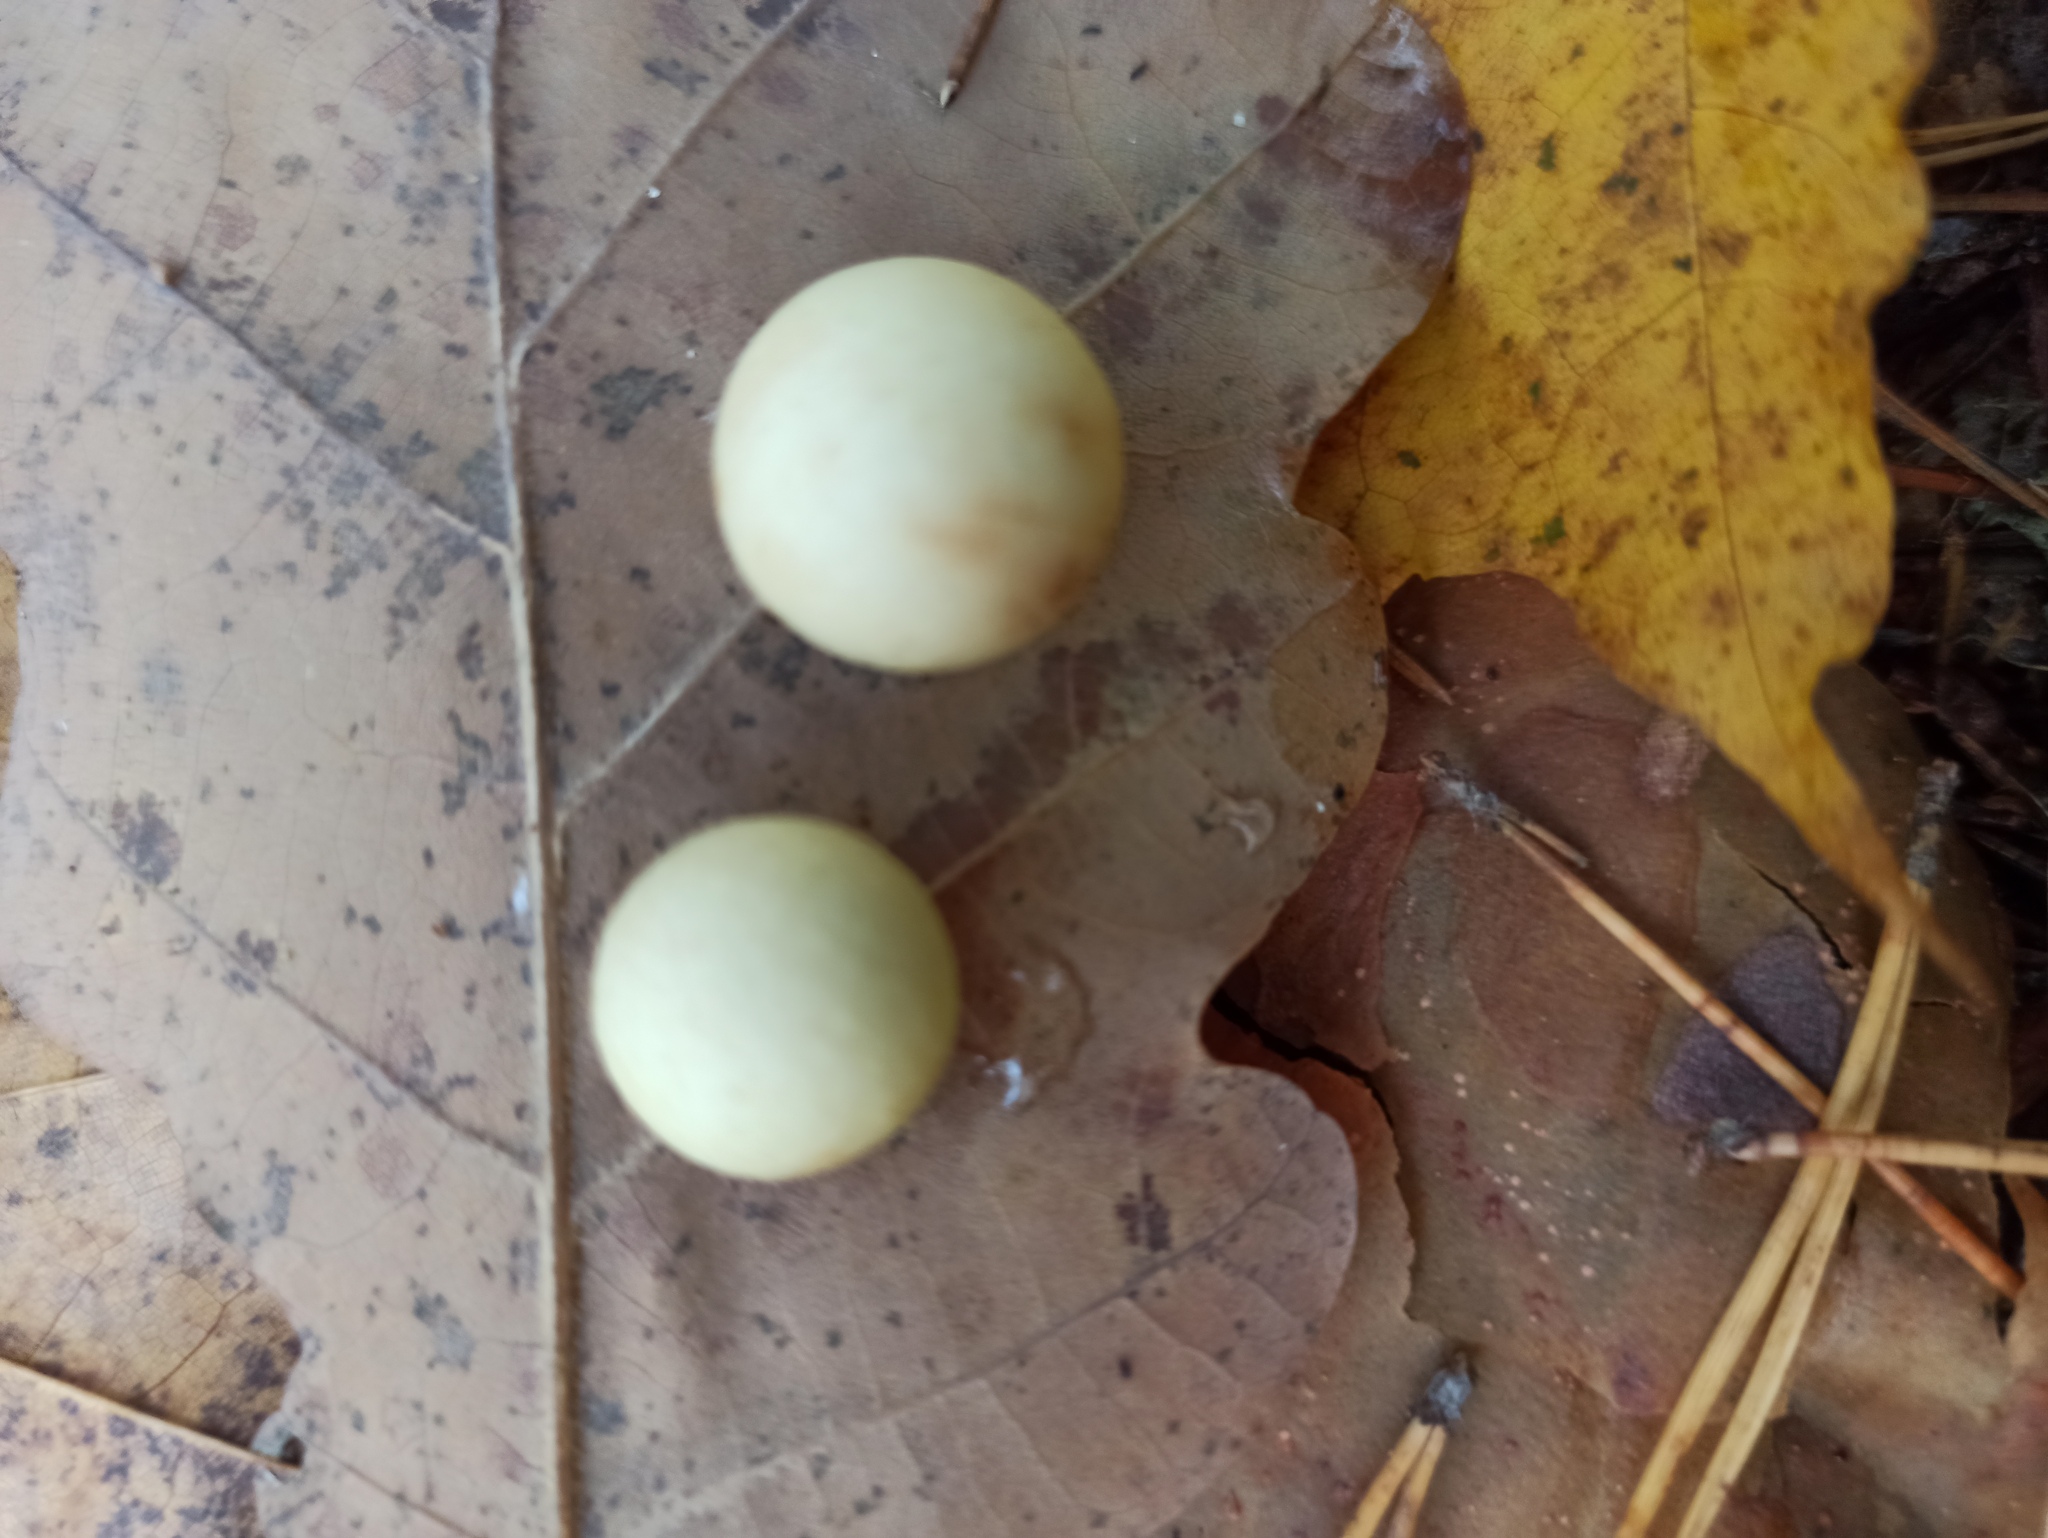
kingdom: Animalia
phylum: Arthropoda
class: Insecta
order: Hymenoptera
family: Cynipidae
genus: Cynips
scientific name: Cynips quercusfolii
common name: Cherry gall
